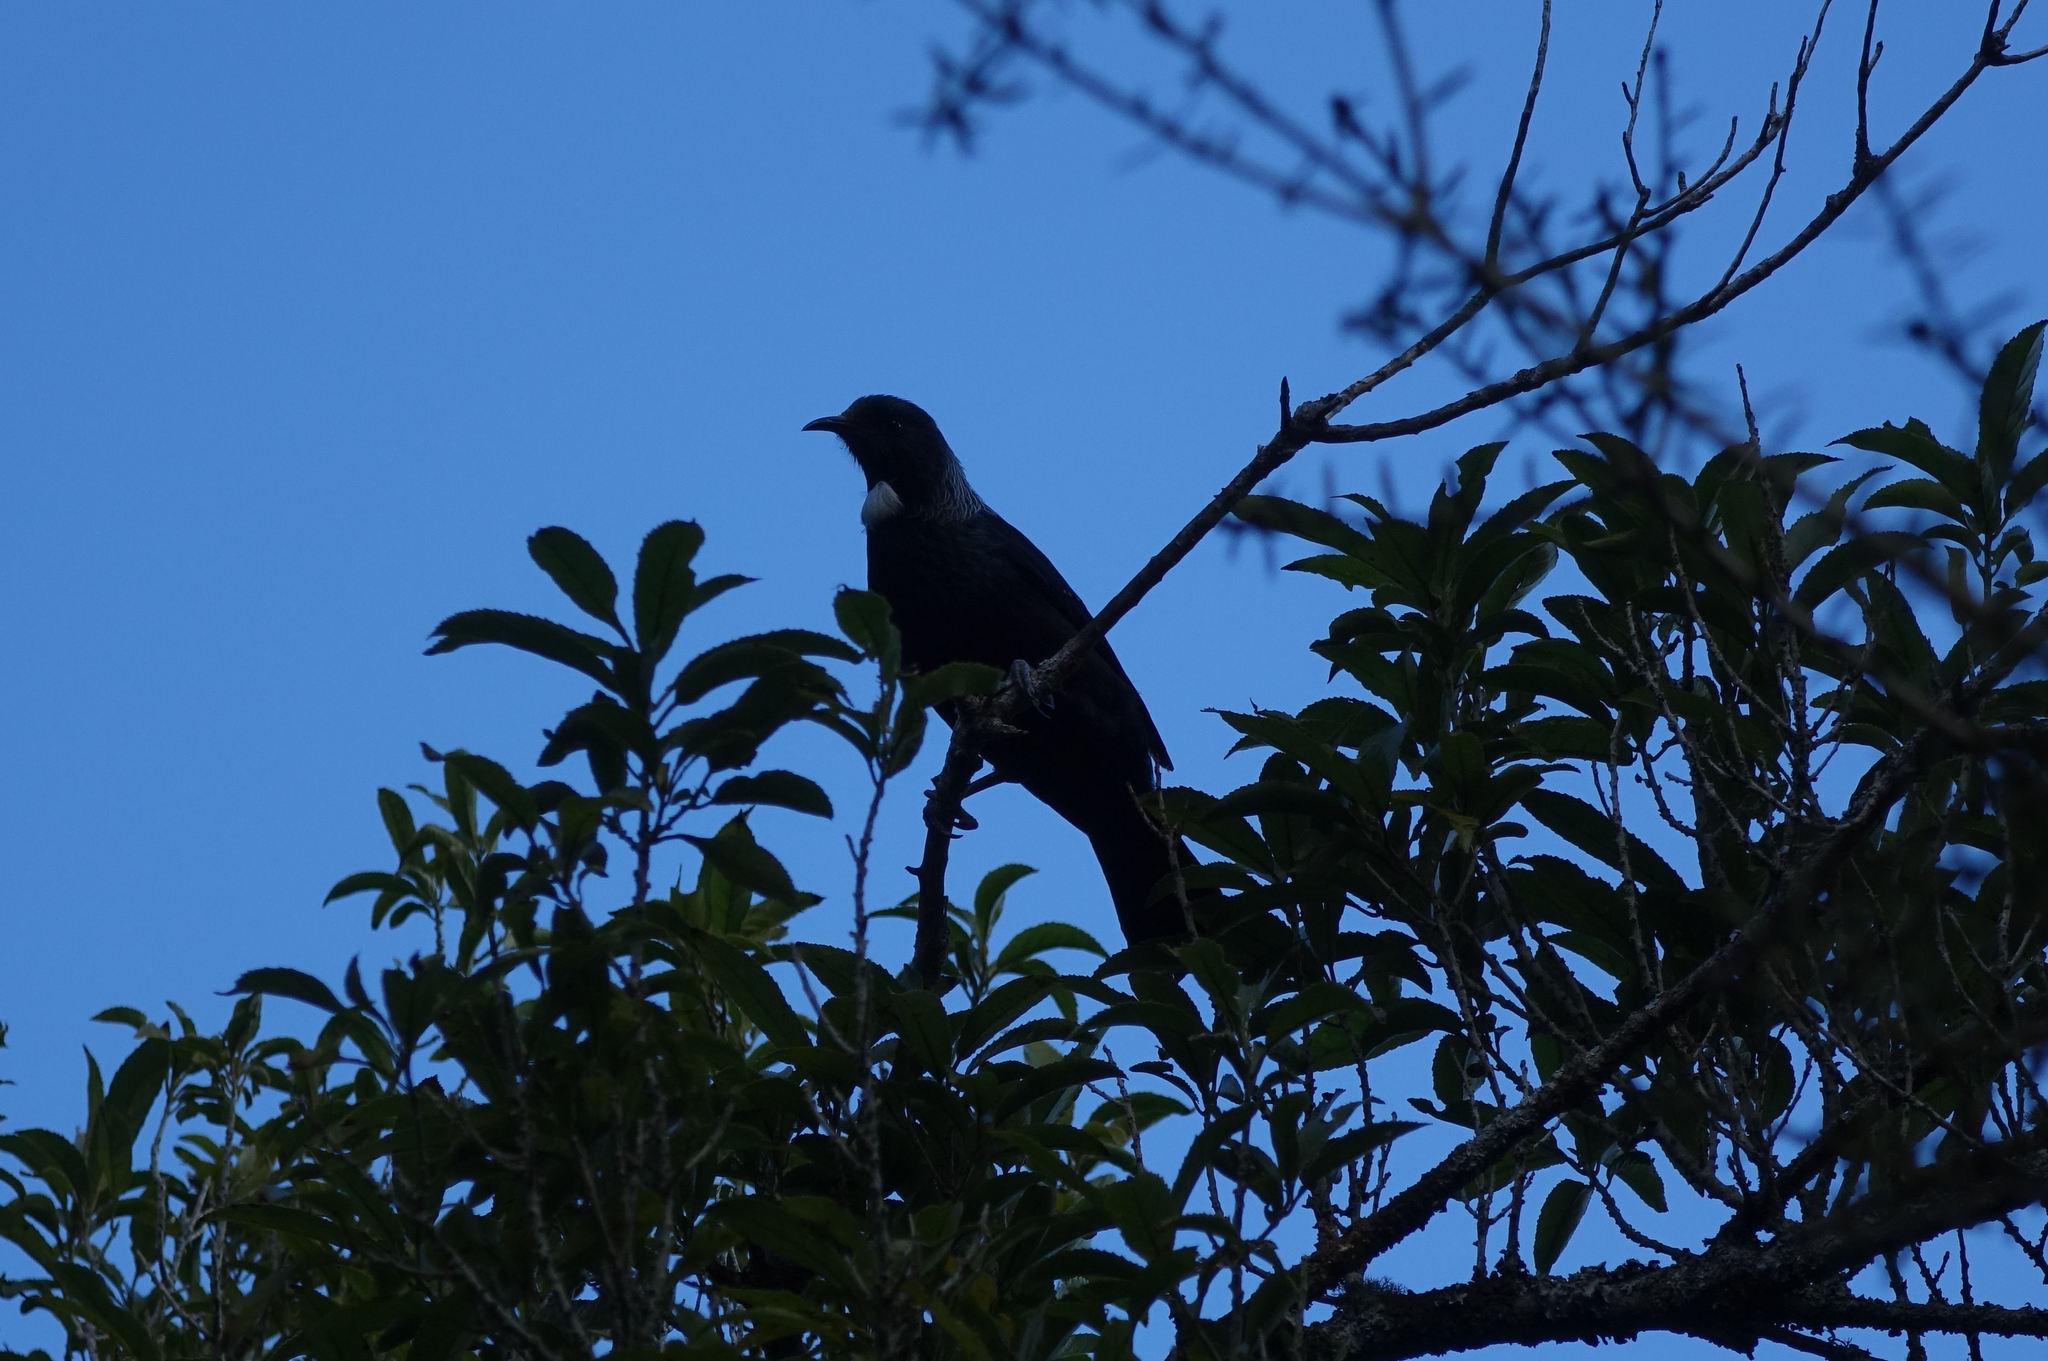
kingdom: Animalia
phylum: Chordata
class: Aves
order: Passeriformes
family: Meliphagidae
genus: Prosthemadera
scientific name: Prosthemadera novaeseelandiae
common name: Tui
